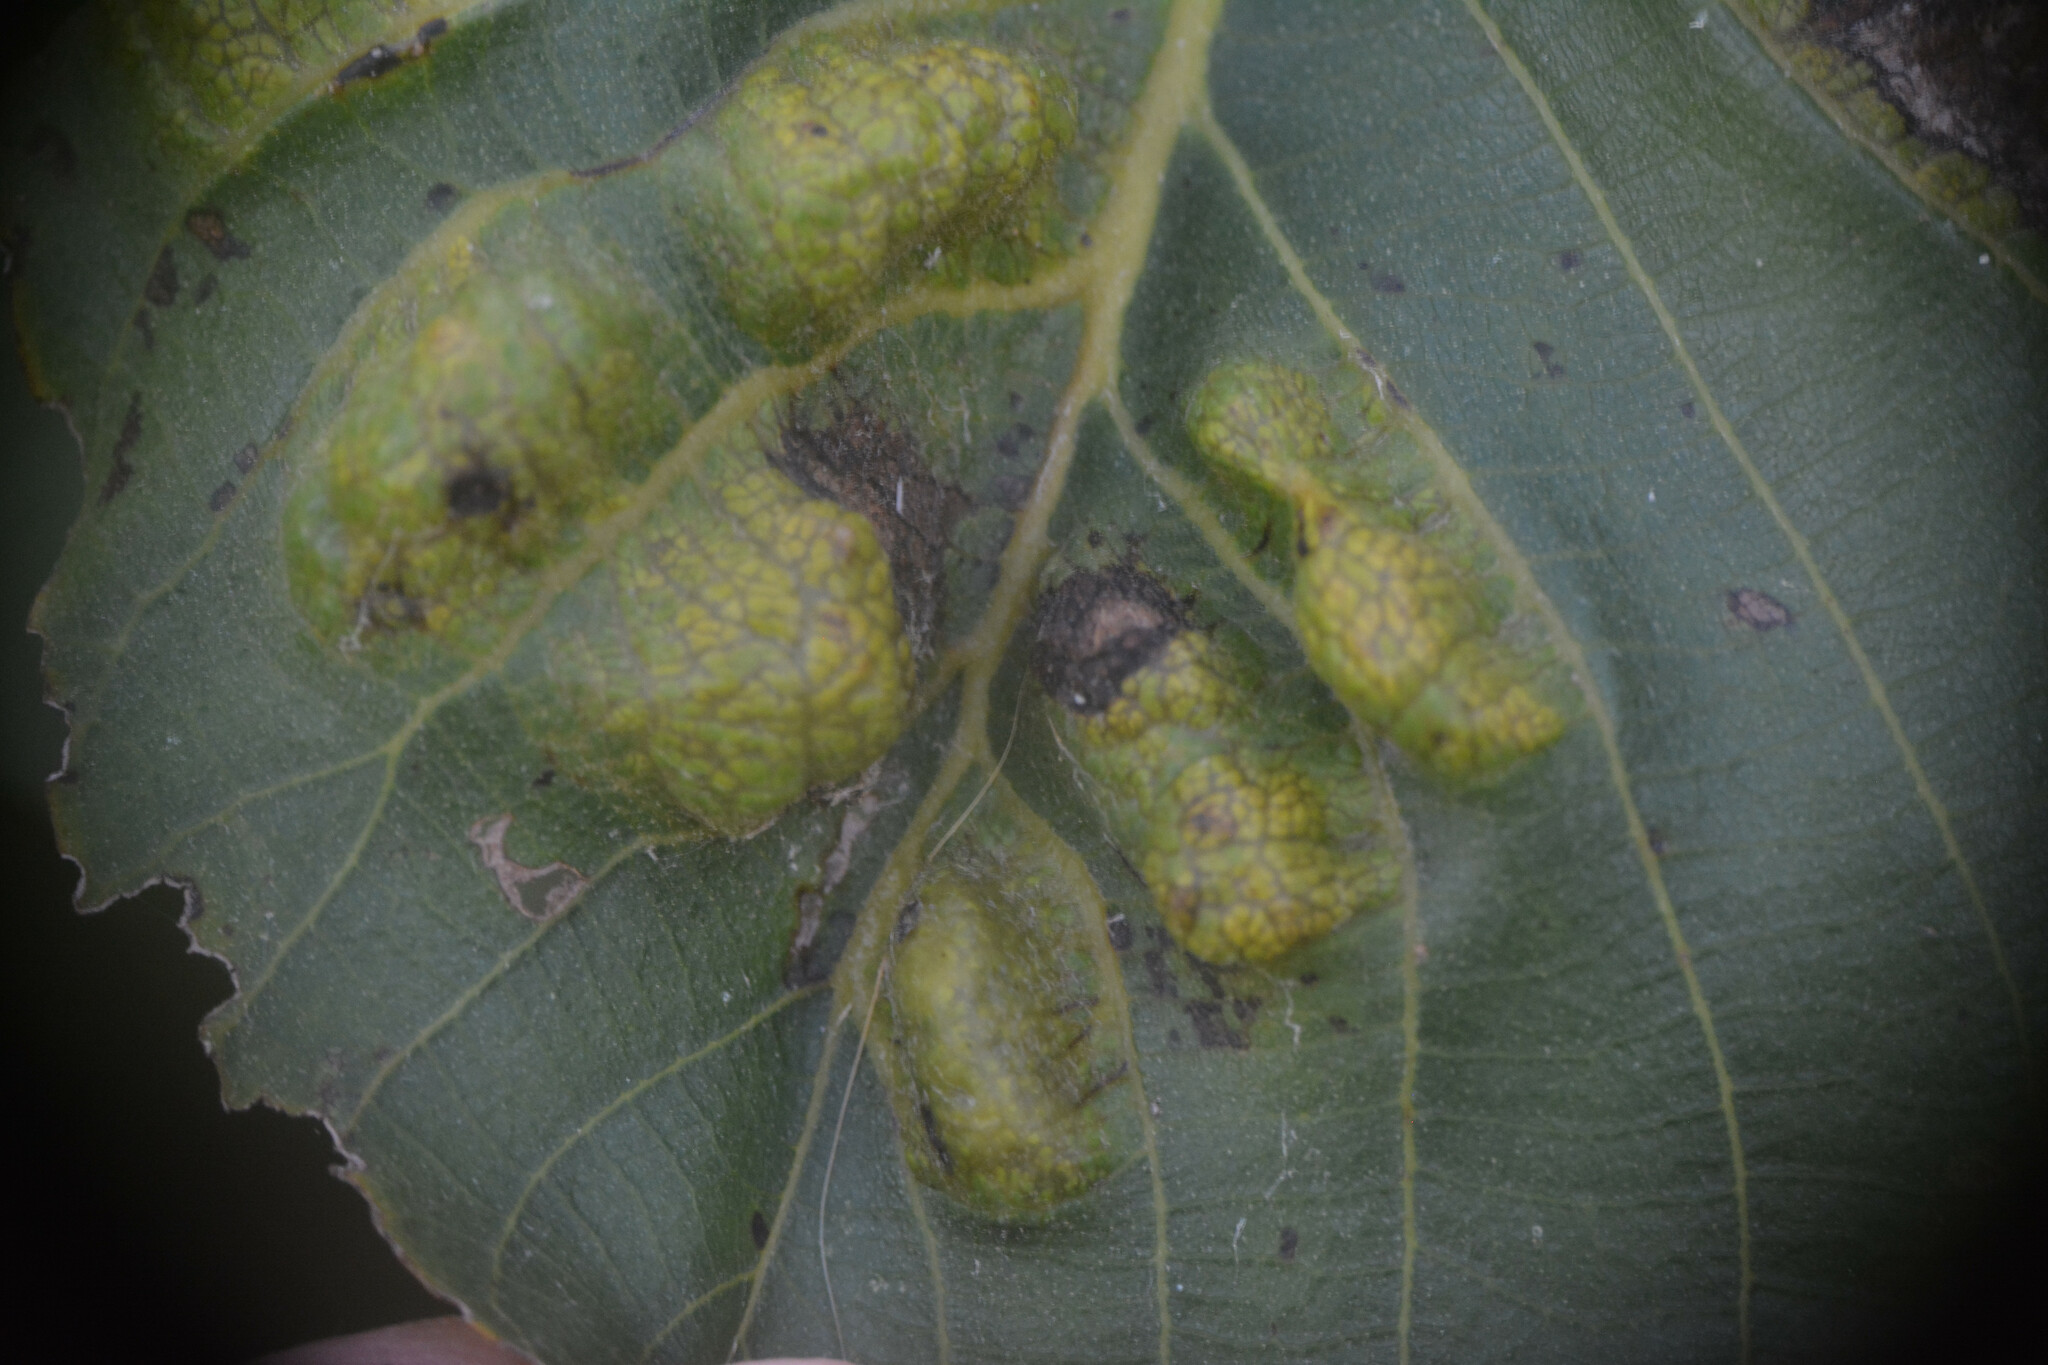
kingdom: Animalia
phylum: Arthropoda
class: Arachnida
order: Trombidiformes
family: Eriophyidae
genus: Aceria
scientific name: Aceria erinea
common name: Persian walnut erineum mite
